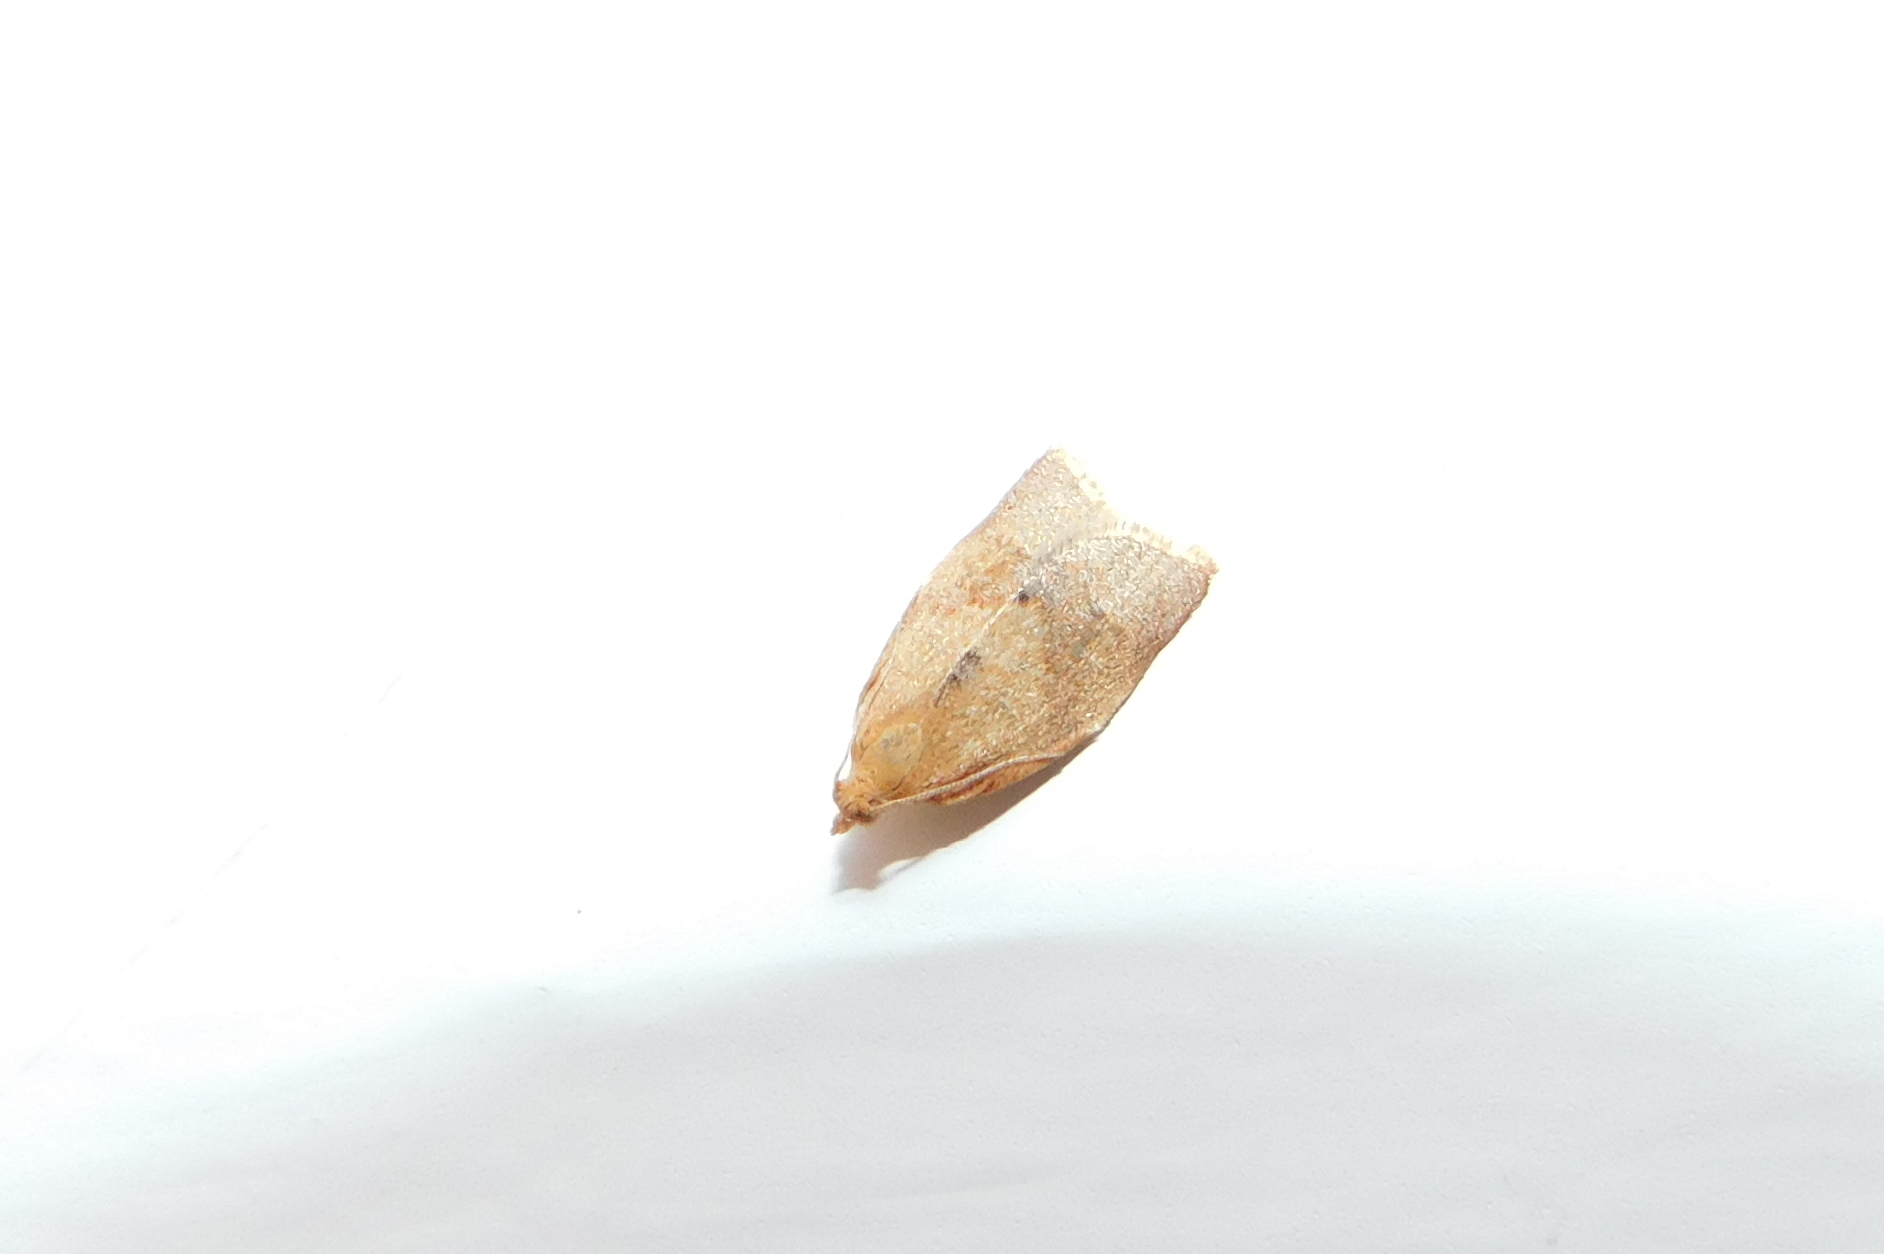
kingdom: Animalia
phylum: Arthropoda
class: Insecta
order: Lepidoptera
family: Tortricidae
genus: Clepsis
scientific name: Clepsis consimilana
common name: Privet tortrix
